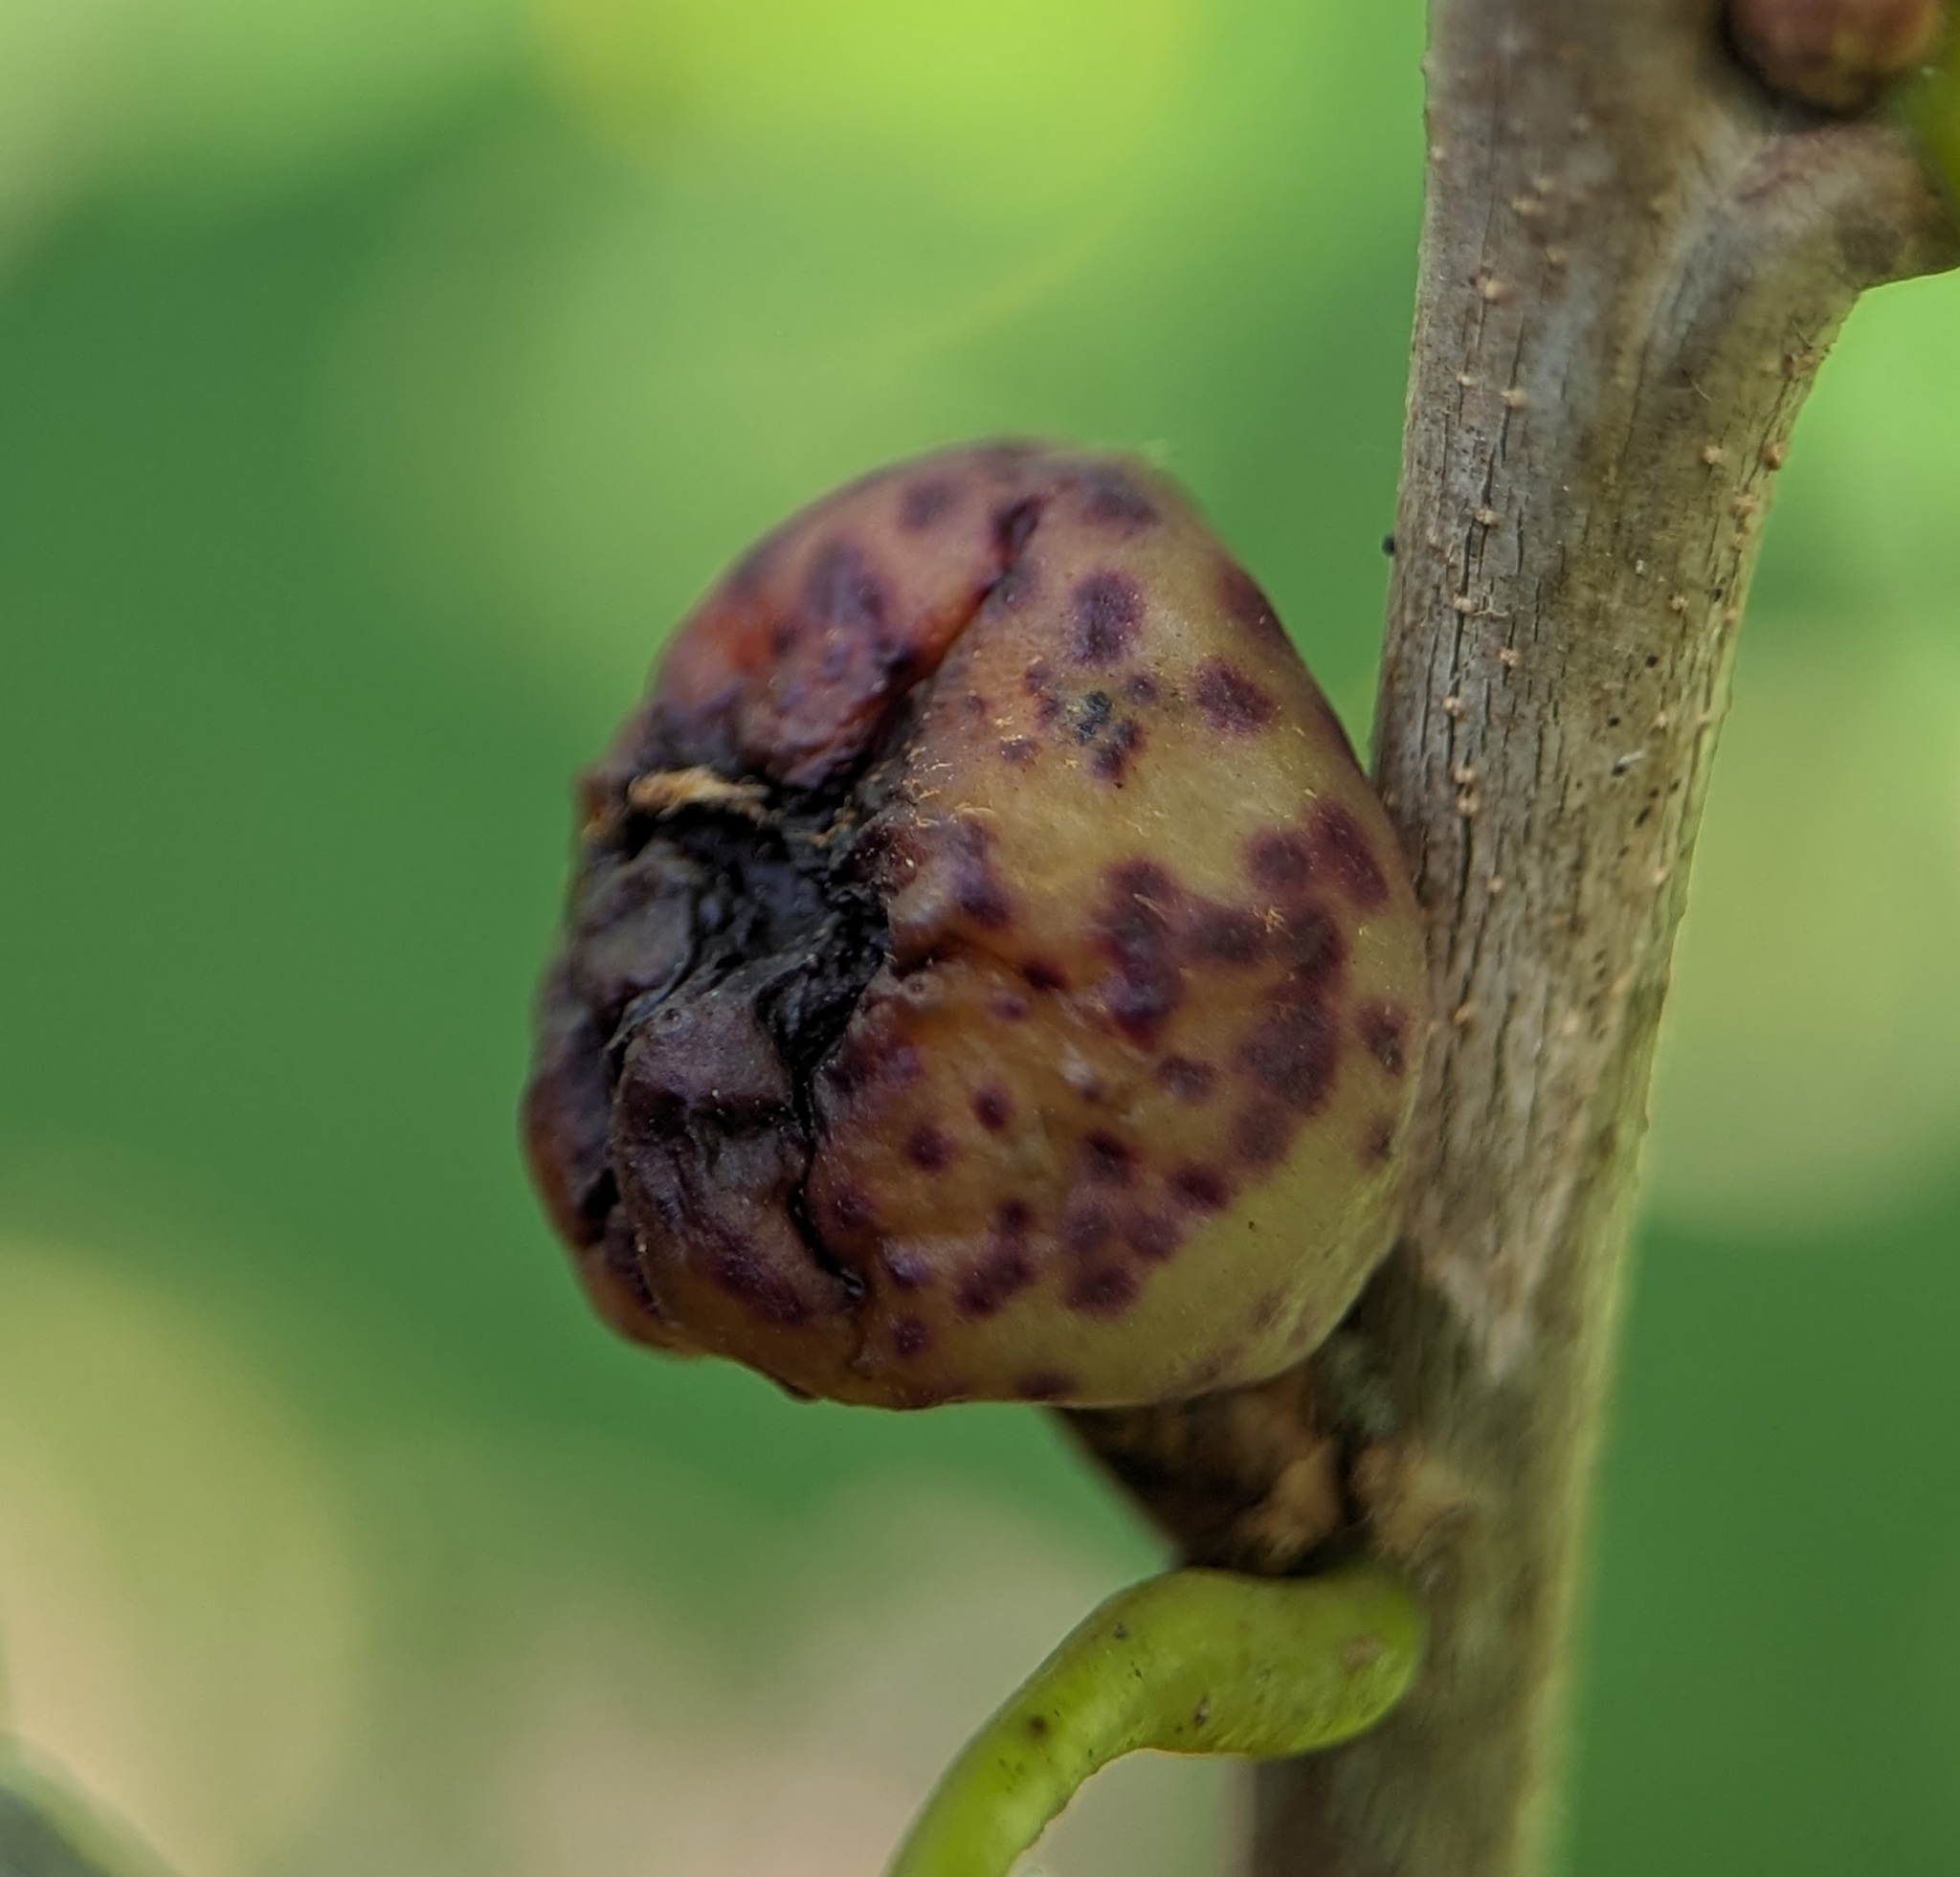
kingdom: Animalia
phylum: Arthropoda
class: Insecta
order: Hymenoptera
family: Cynipidae
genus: Amphibolips
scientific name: Amphibolips
